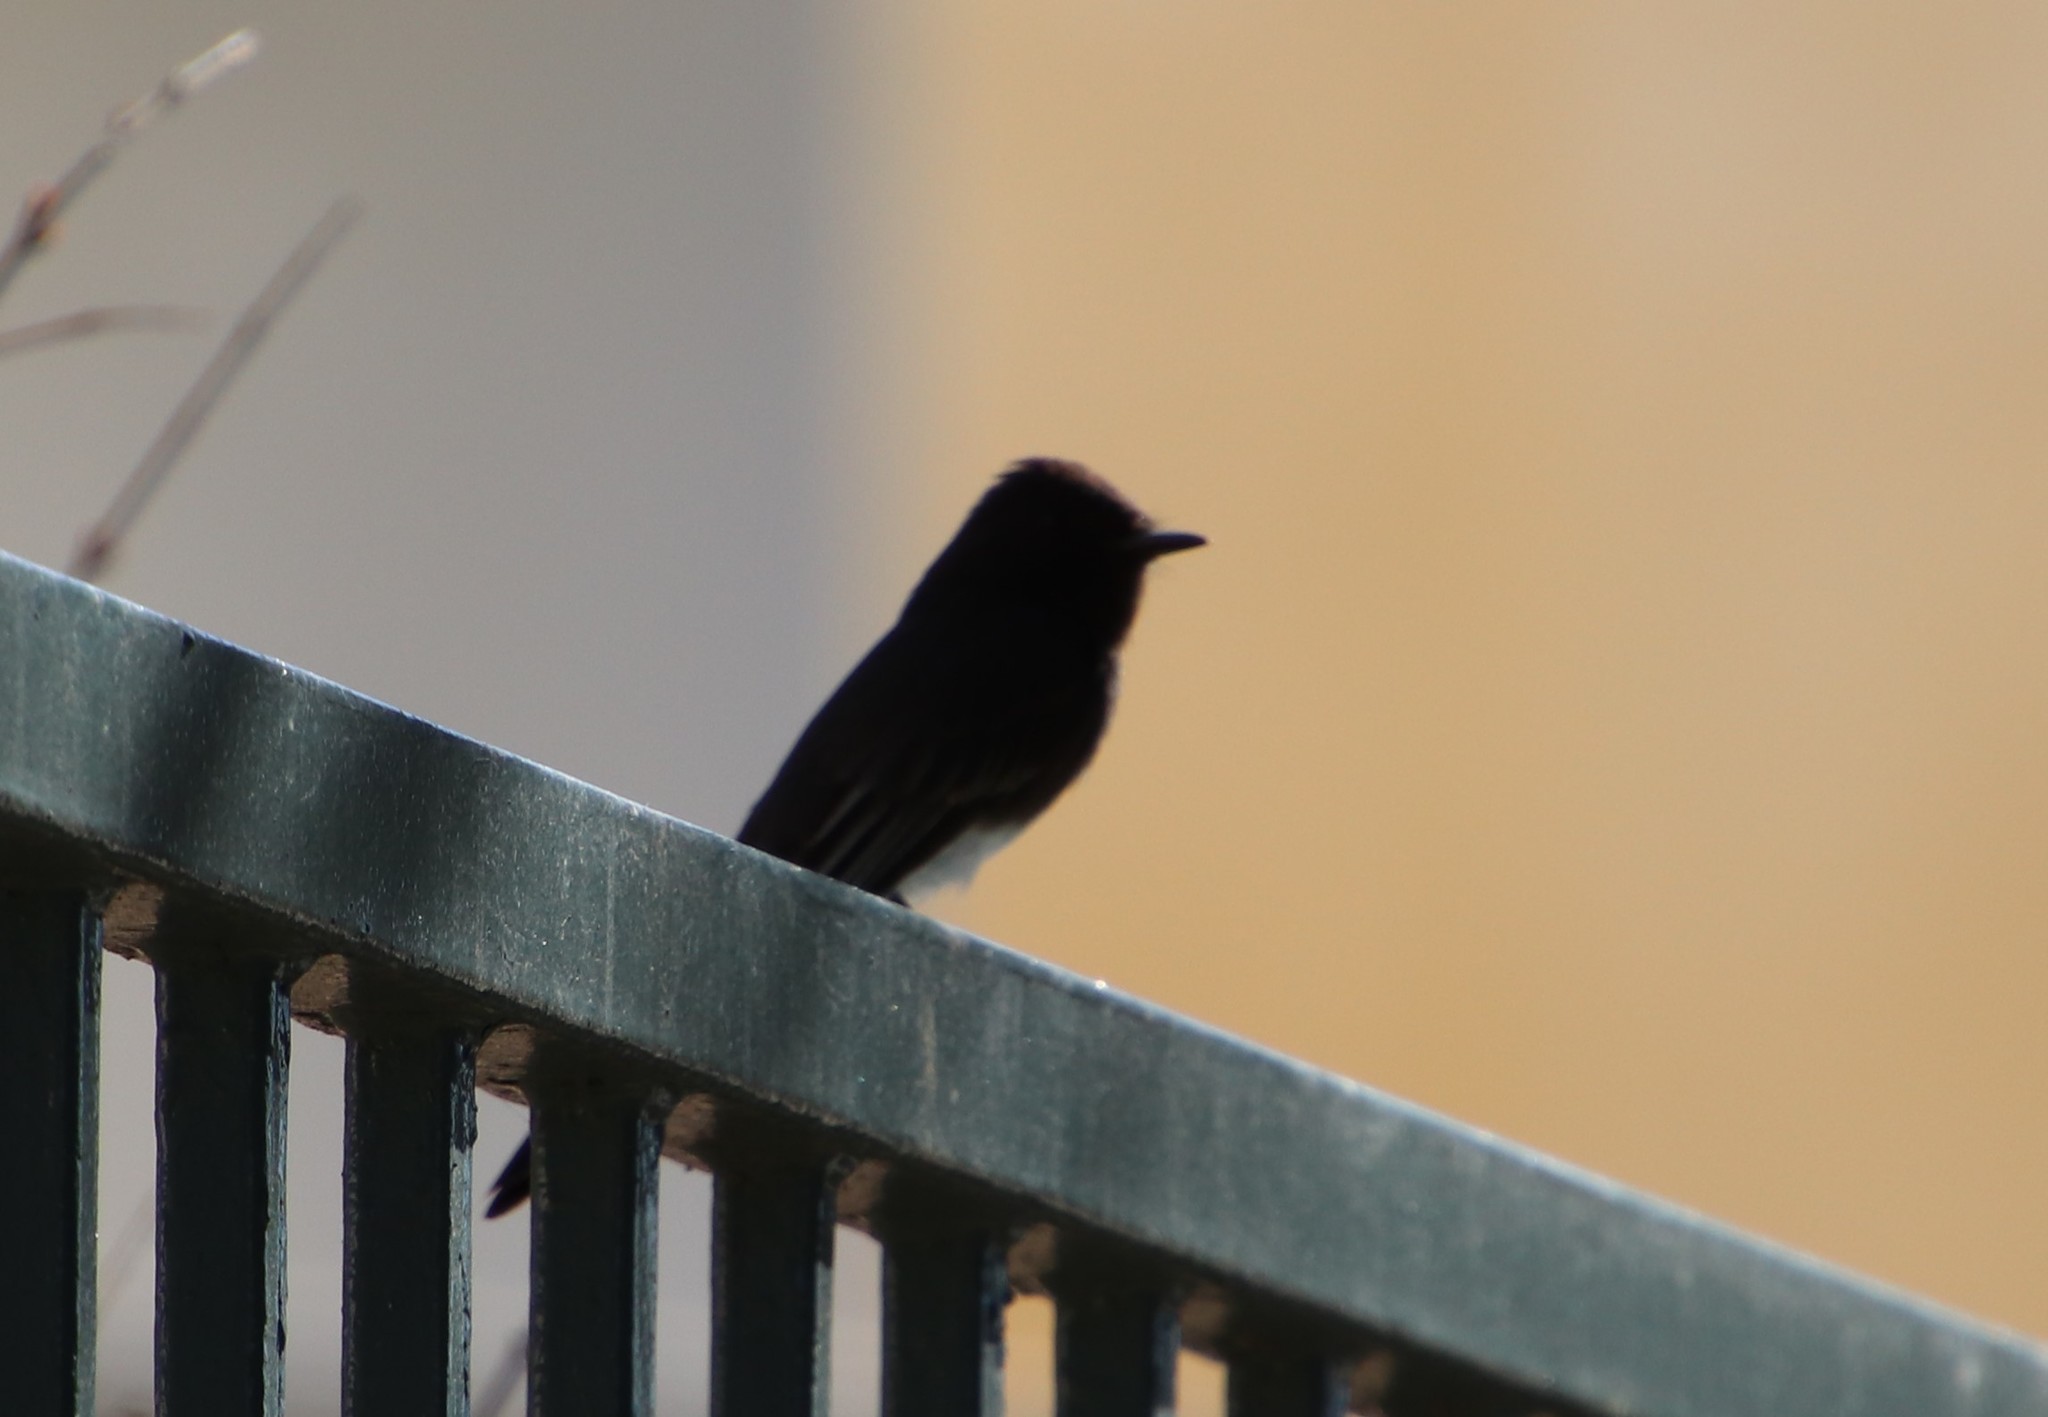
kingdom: Animalia
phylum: Chordata
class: Aves
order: Passeriformes
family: Tyrannidae
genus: Sayornis
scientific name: Sayornis nigricans
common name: Black phoebe
